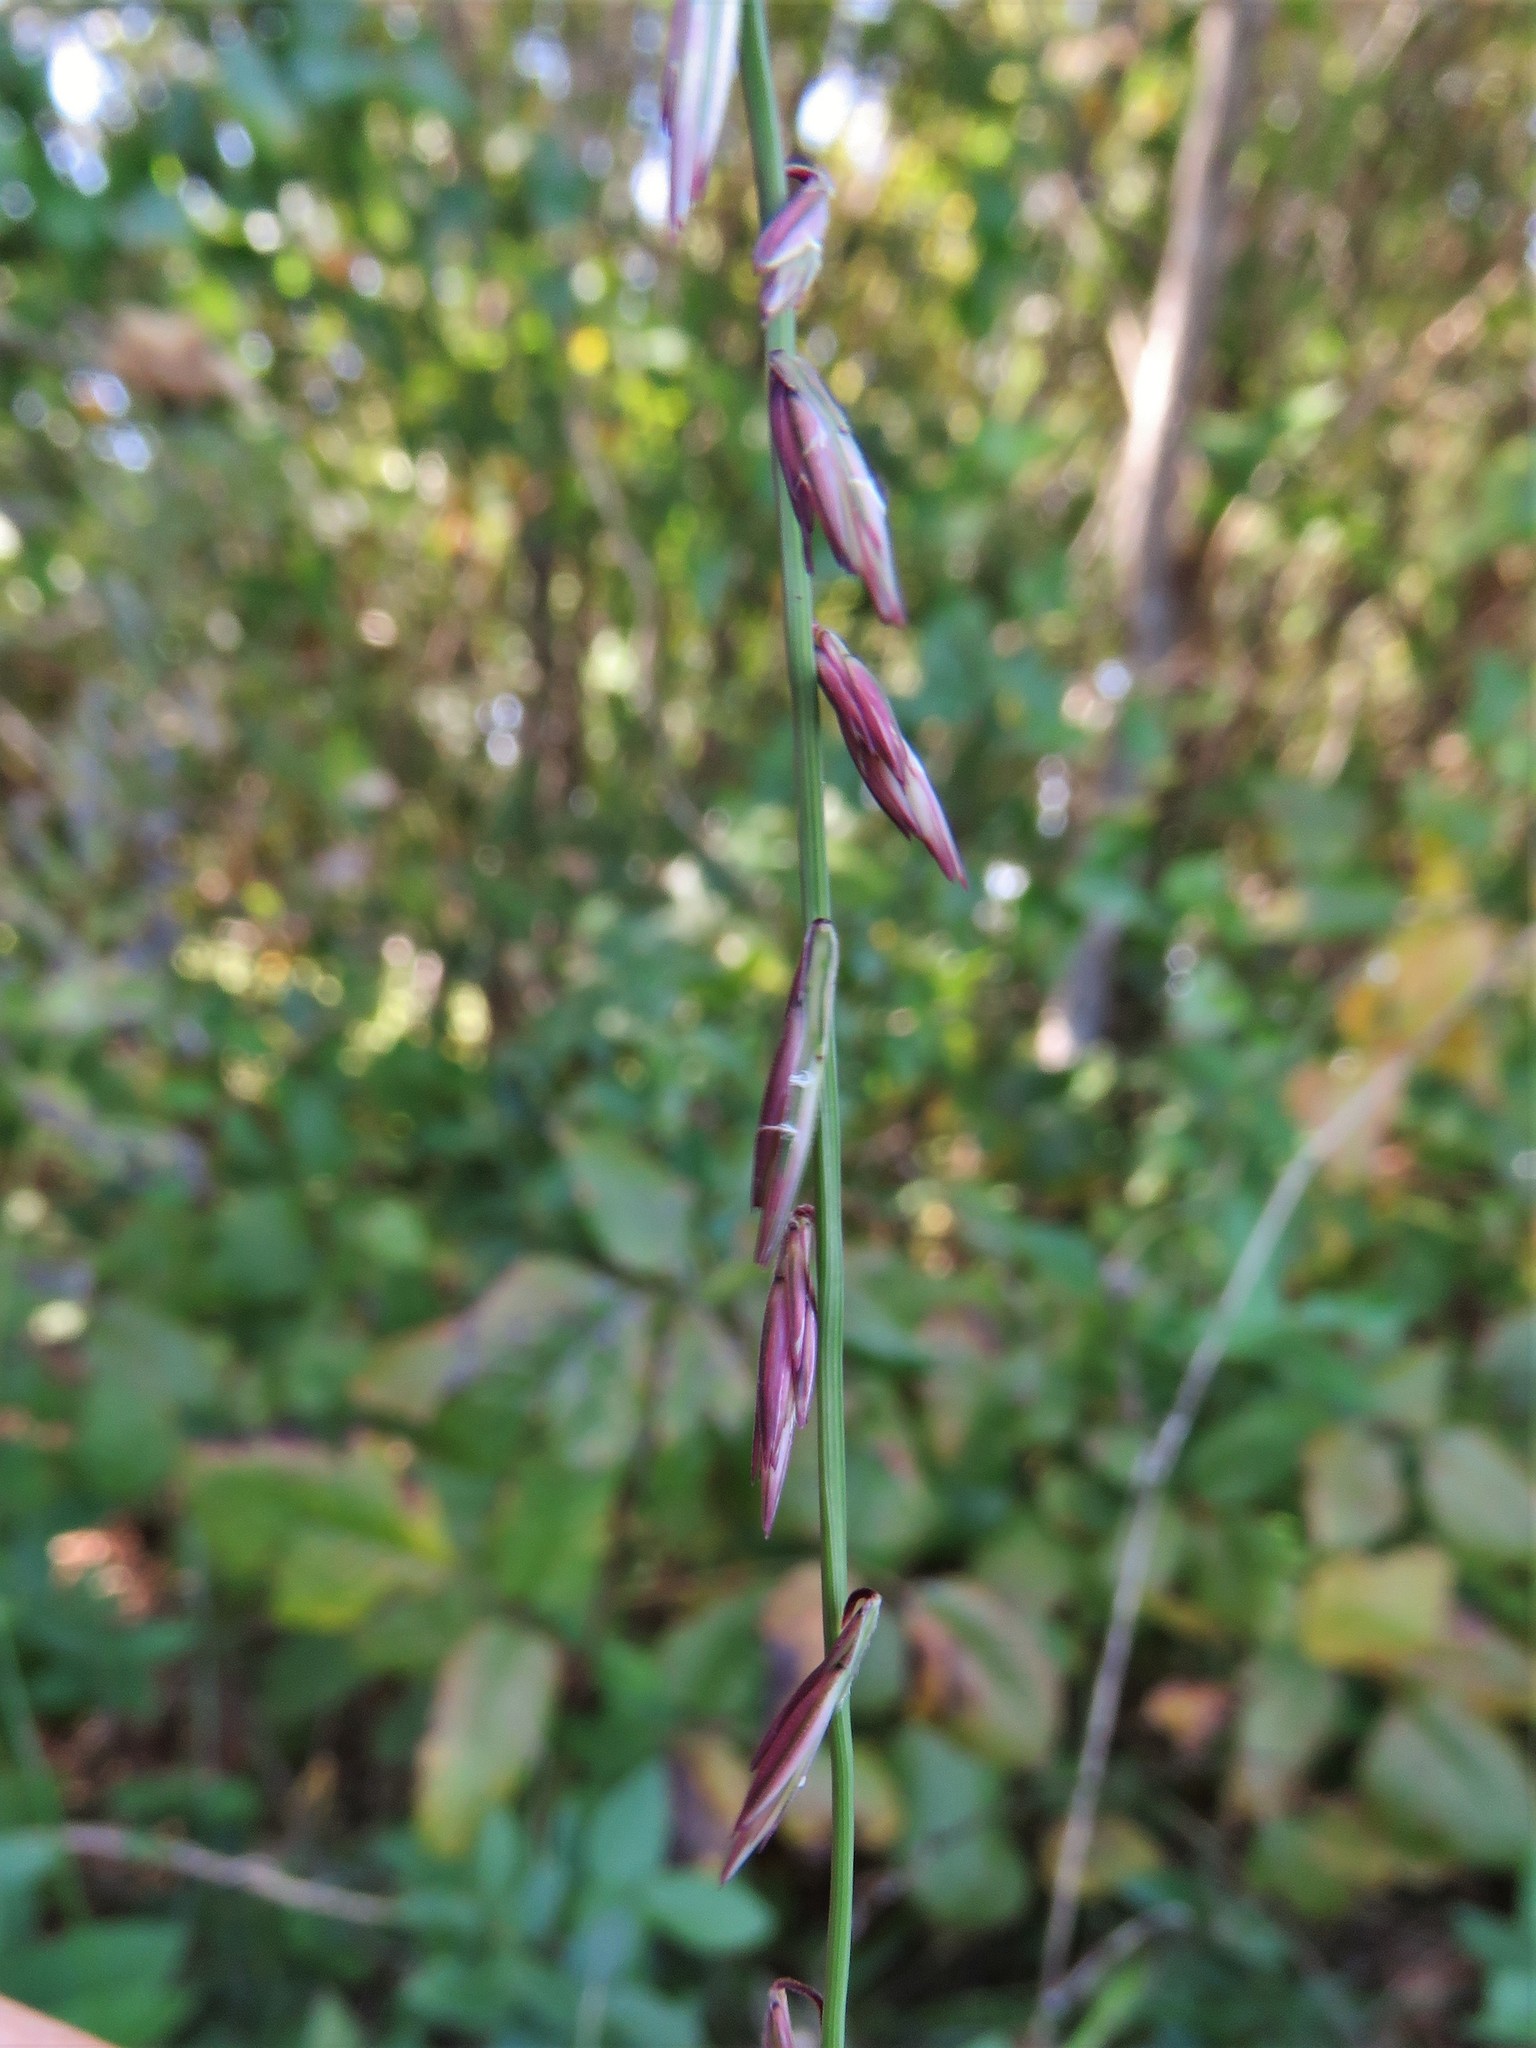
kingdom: Plantae
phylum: Tracheophyta
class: Liliopsida
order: Poales
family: Poaceae
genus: Bouteloua
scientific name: Bouteloua curtipendula
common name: Side-oats grama
